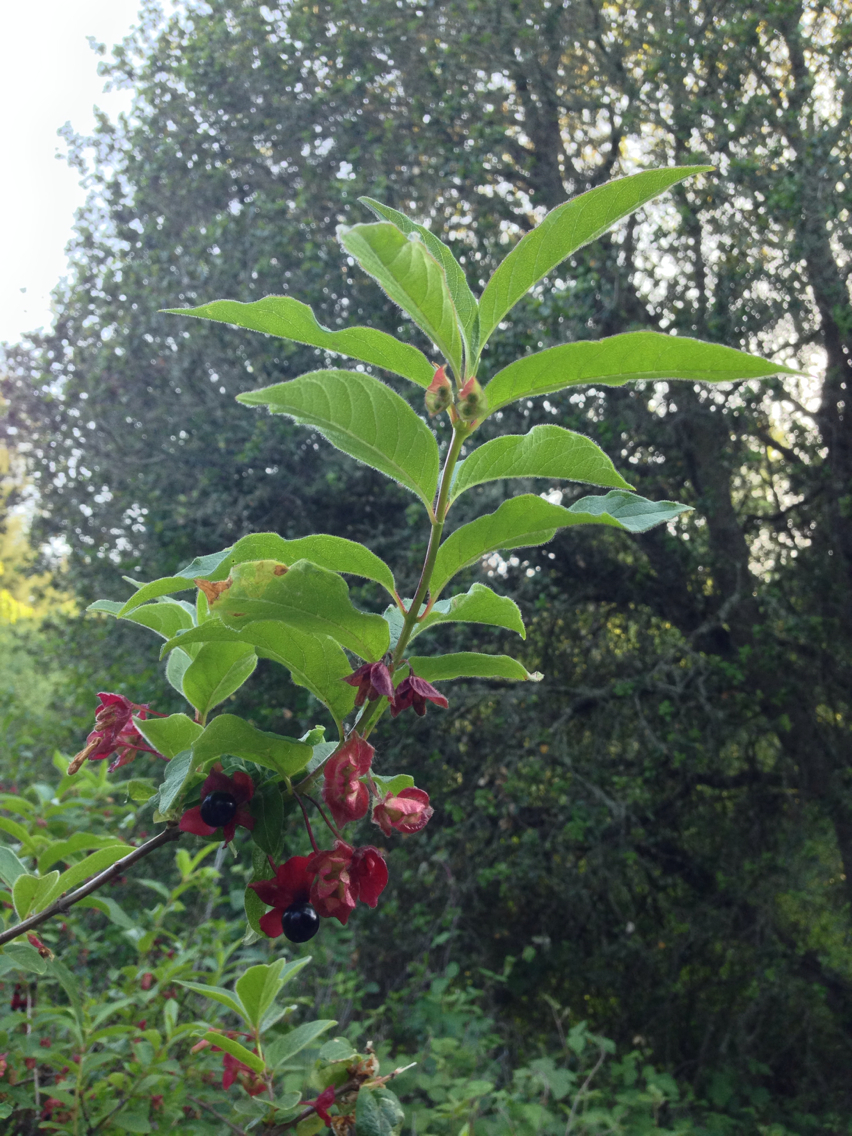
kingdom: Plantae
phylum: Tracheophyta
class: Magnoliopsida
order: Dipsacales
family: Caprifoliaceae
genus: Lonicera
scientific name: Lonicera involucrata
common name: Californian honeysuckle
